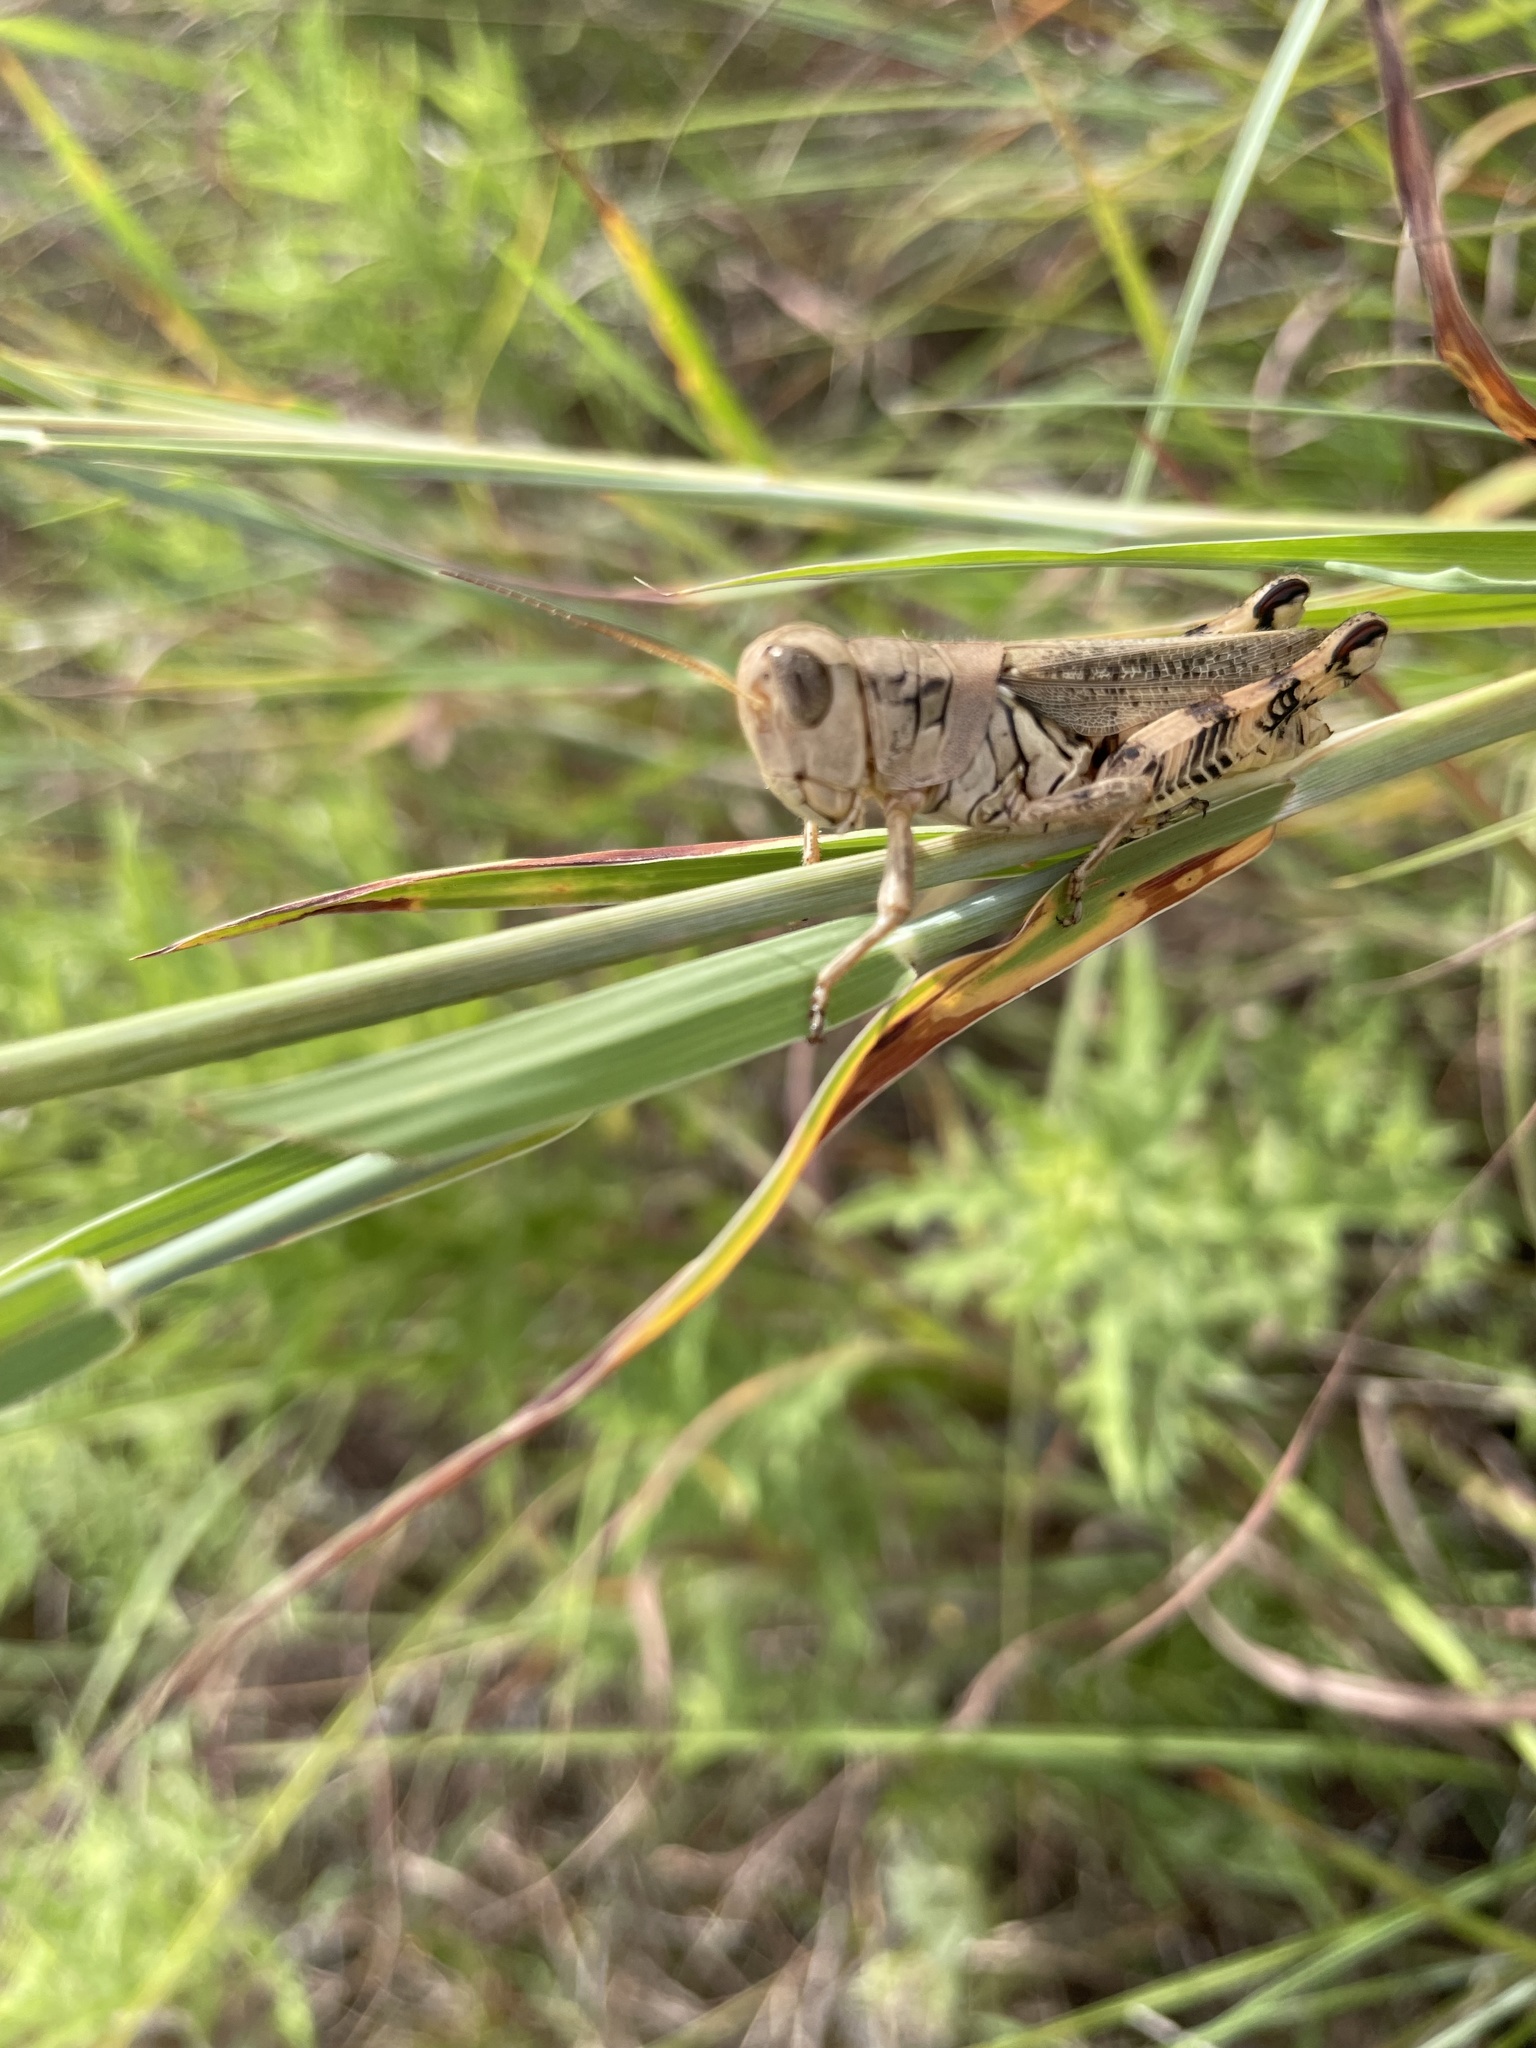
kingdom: Animalia
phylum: Arthropoda
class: Insecta
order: Orthoptera
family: Acrididae
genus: Melanoplus
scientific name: Melanoplus ponderosus
